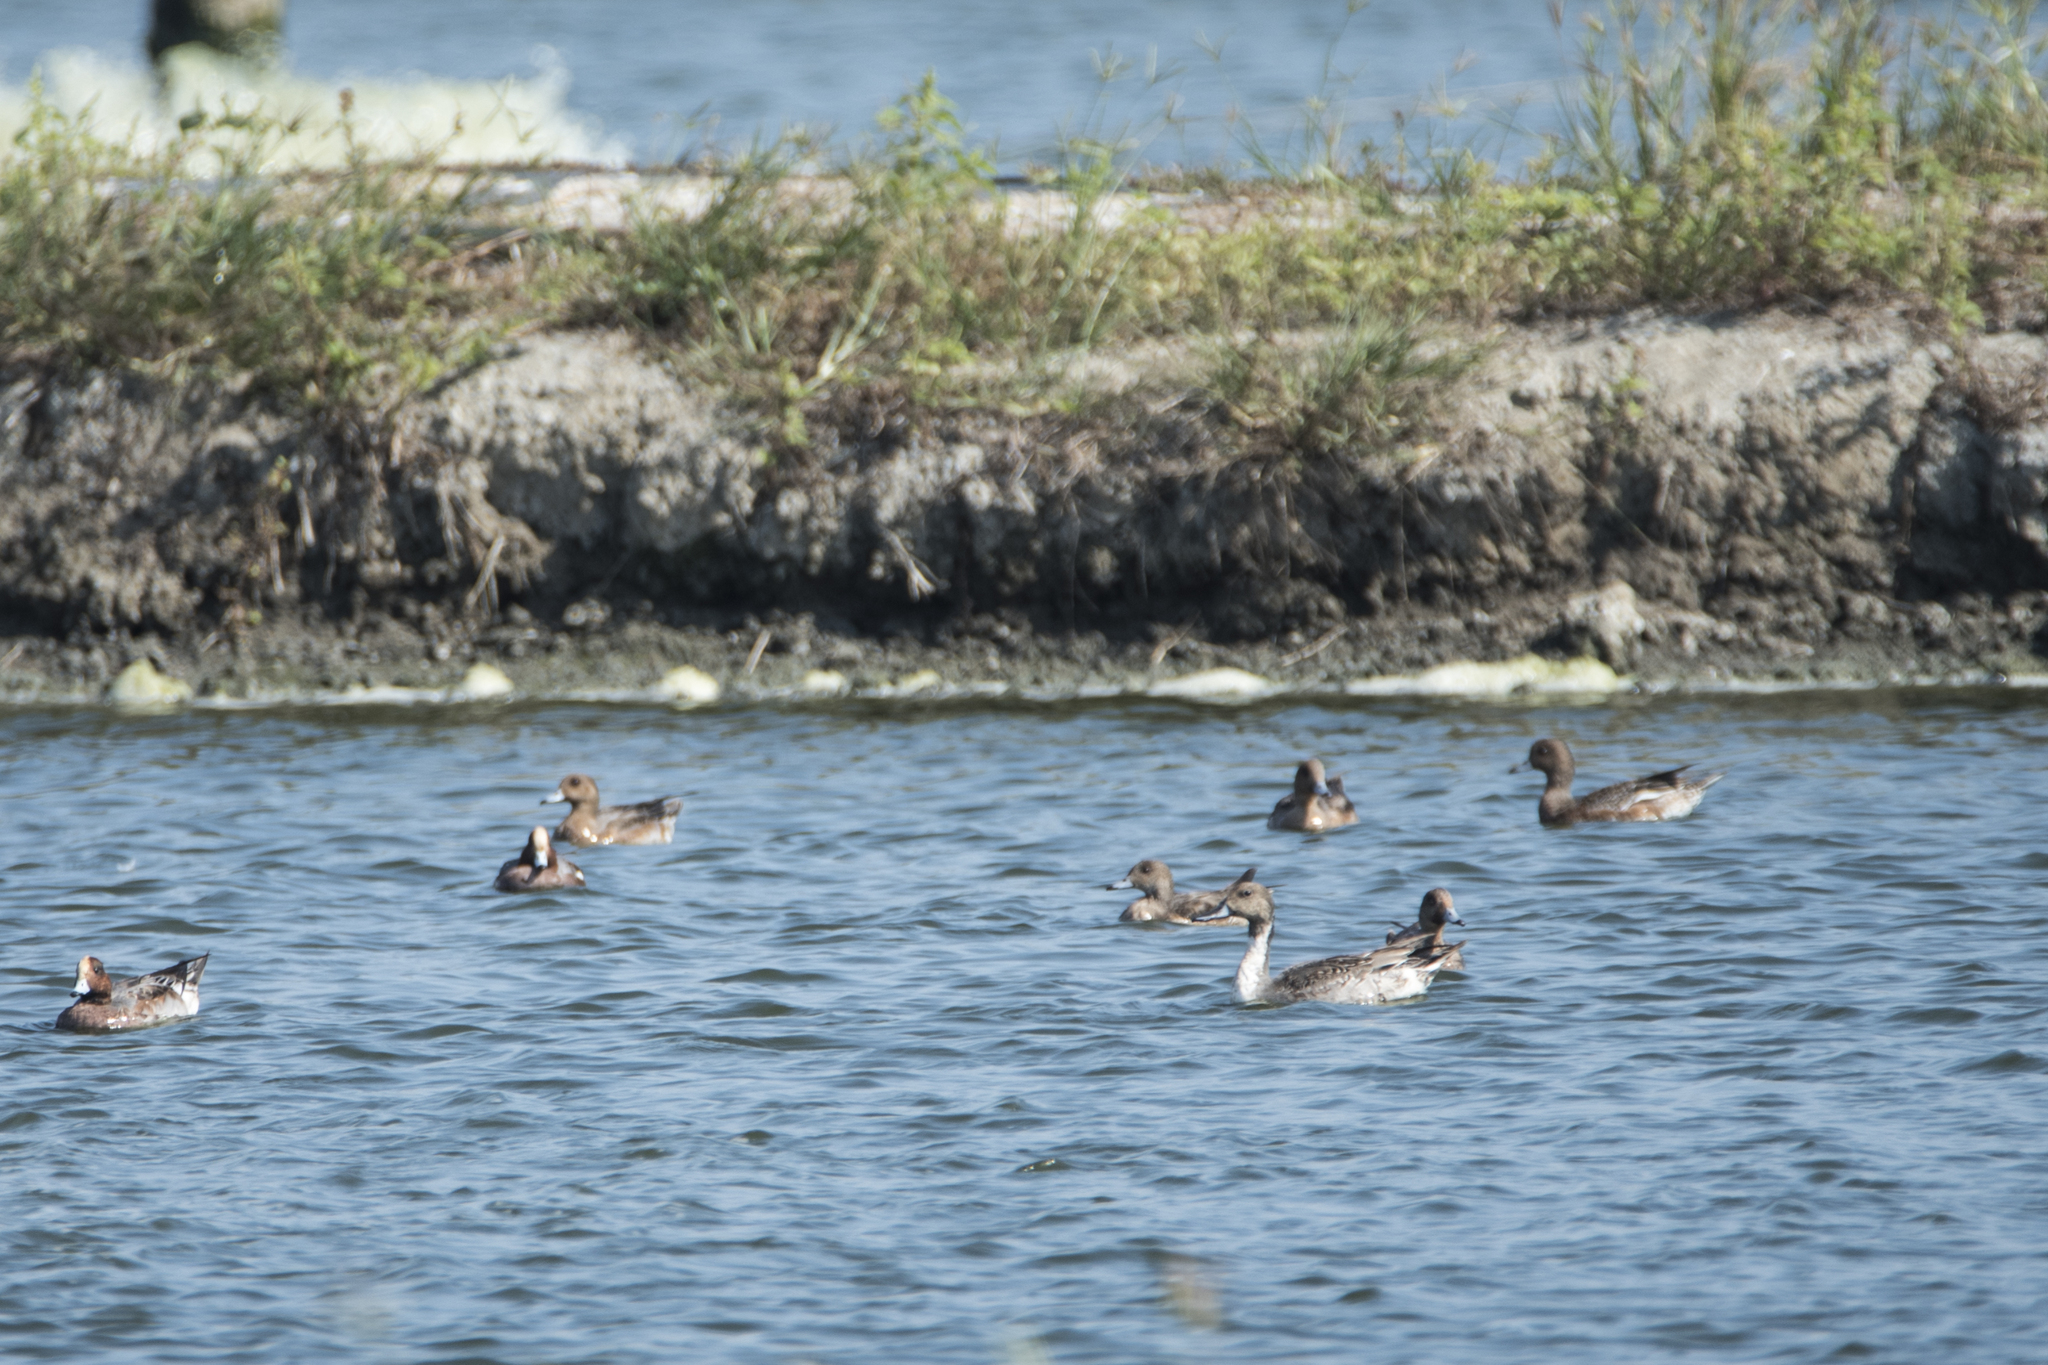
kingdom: Animalia
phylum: Chordata
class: Aves
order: Anseriformes
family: Anatidae
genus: Anas
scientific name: Anas acuta
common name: Northern pintail
